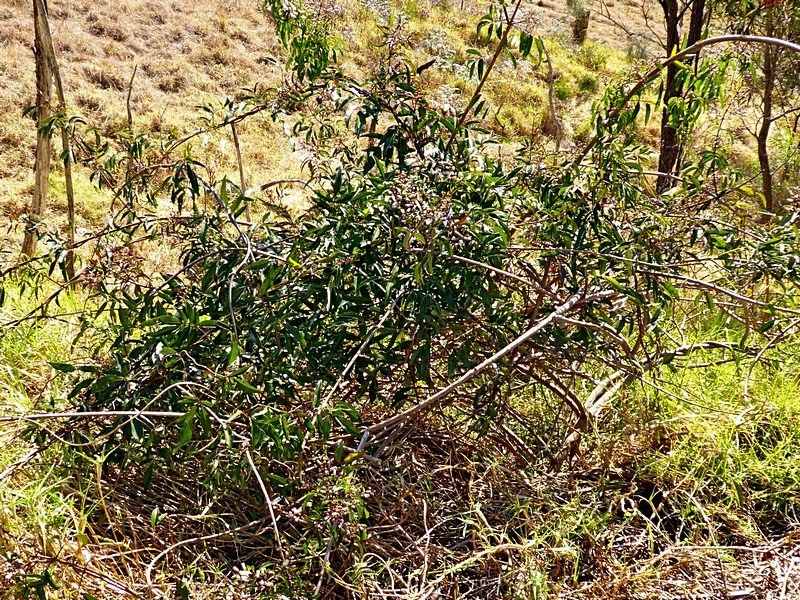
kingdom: Plantae
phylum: Tracheophyta
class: Magnoliopsida
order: Lamiales
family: Bignoniaceae
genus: Pandorea
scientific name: Pandorea pandorana
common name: Wonga-wonga-vine
